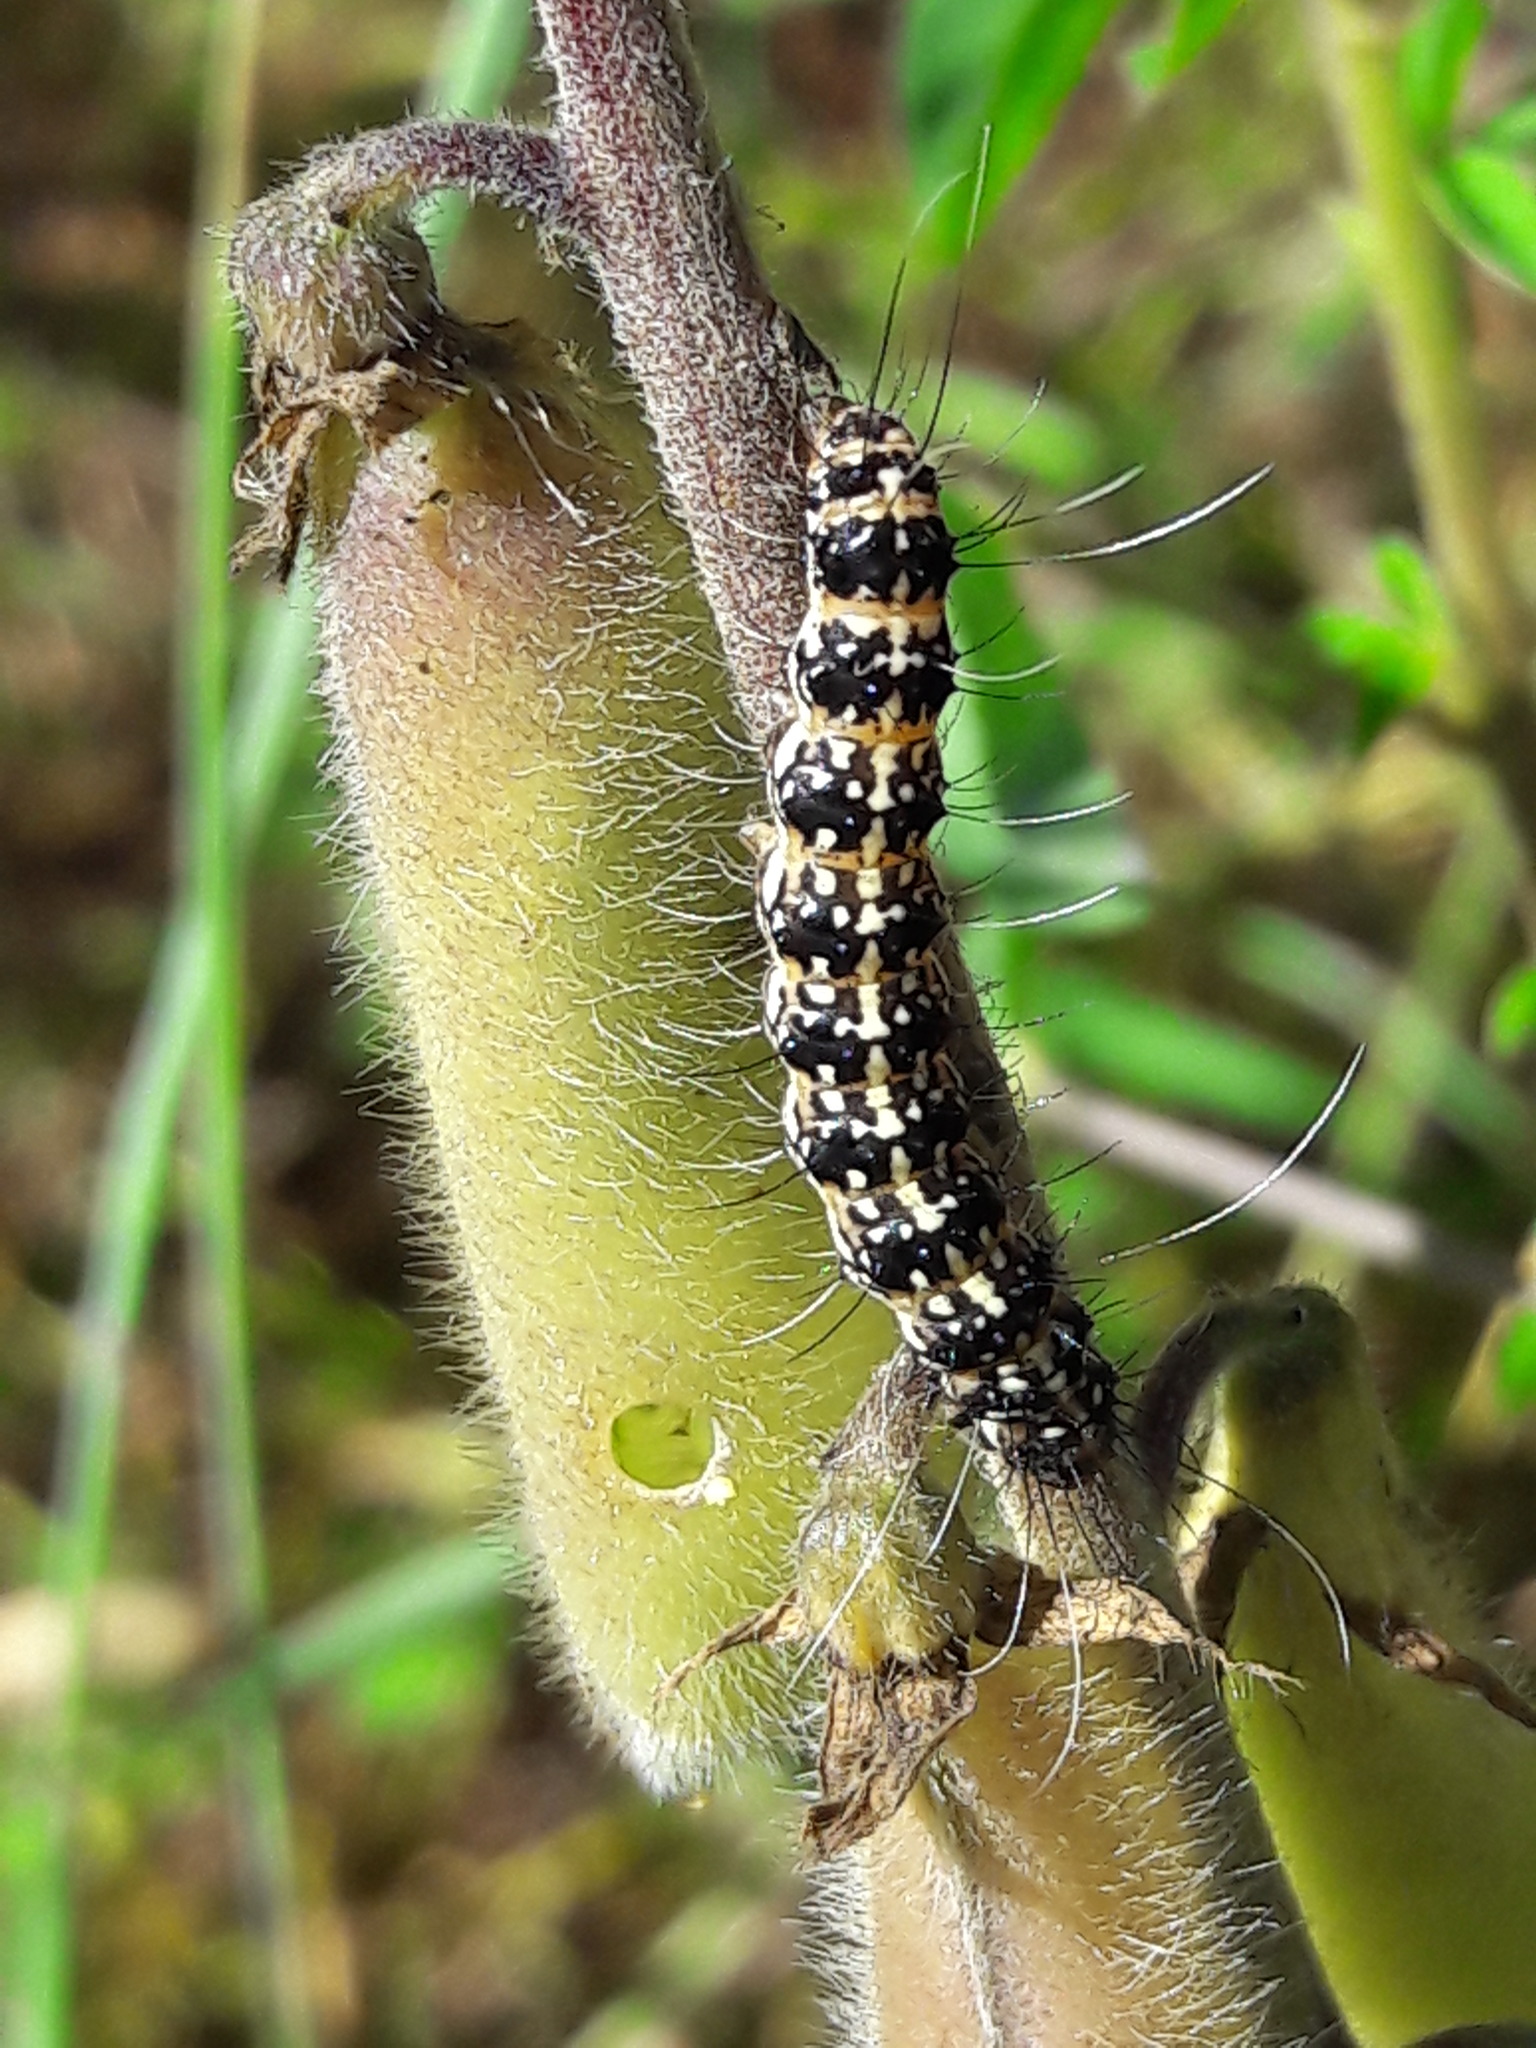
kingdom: Animalia
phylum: Arthropoda
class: Insecta
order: Lepidoptera
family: Erebidae
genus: Utetheisa
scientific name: Utetheisa ornatrix
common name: Beautiful utetheisa
